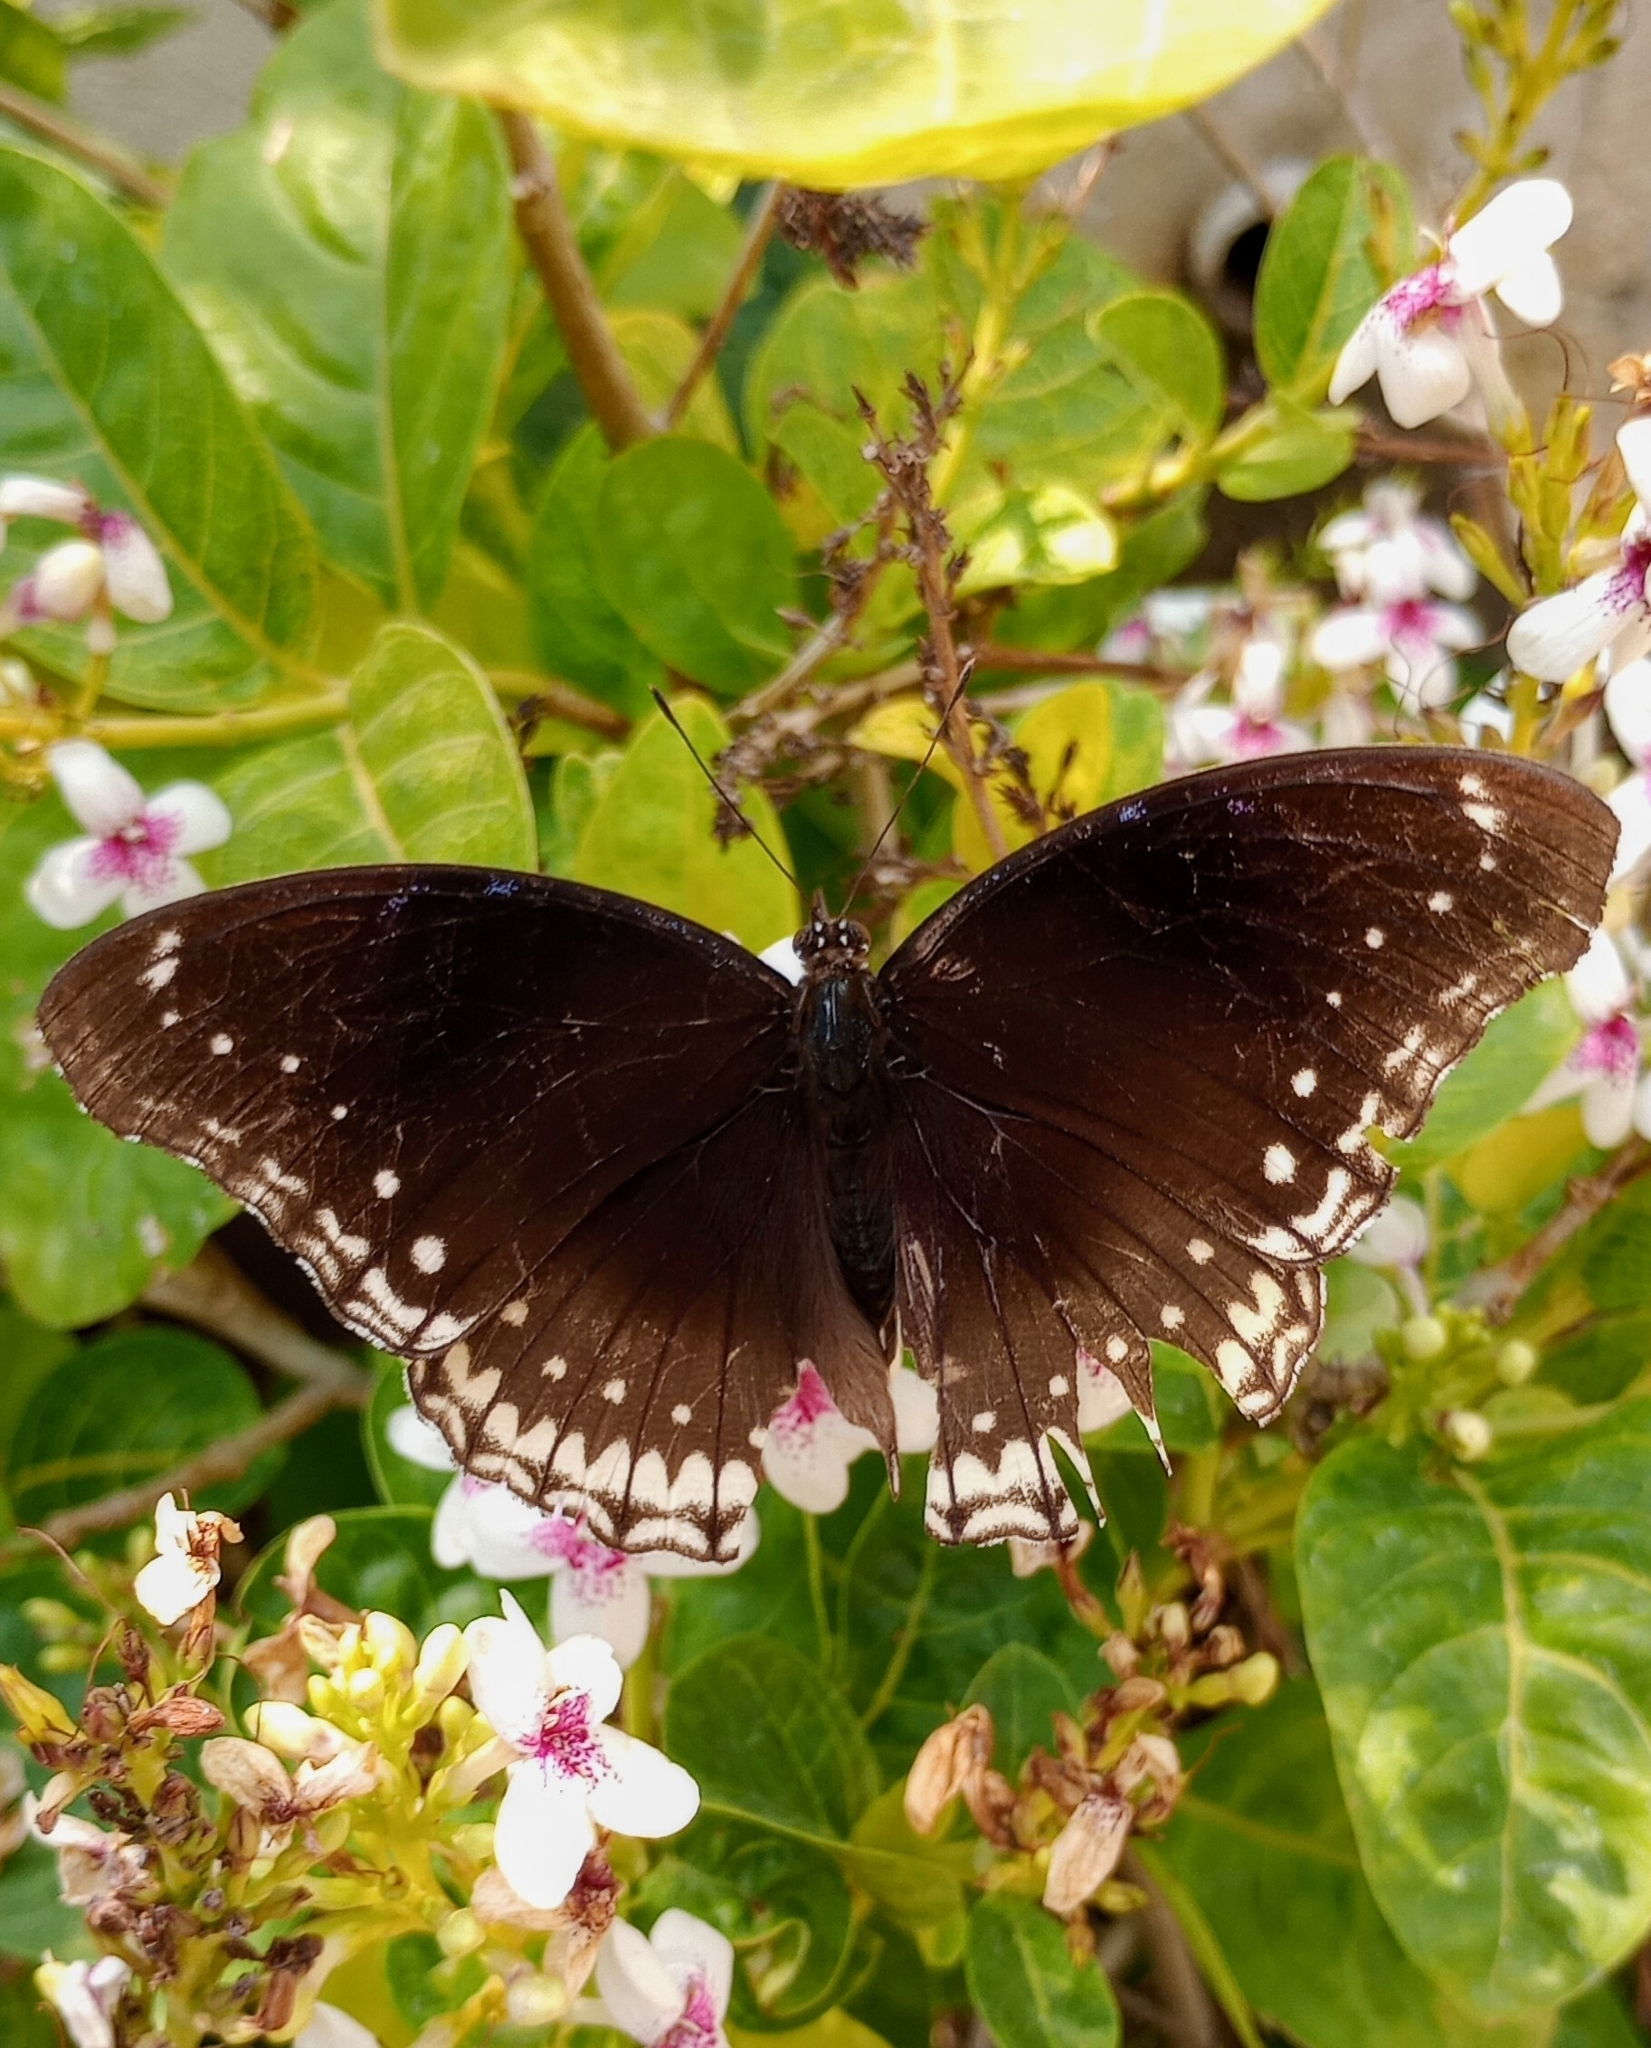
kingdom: Animalia
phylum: Arthropoda
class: Insecta
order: Lepidoptera
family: Nymphalidae
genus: Hypolimnas
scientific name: Hypolimnas bolina
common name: Great eggfly
